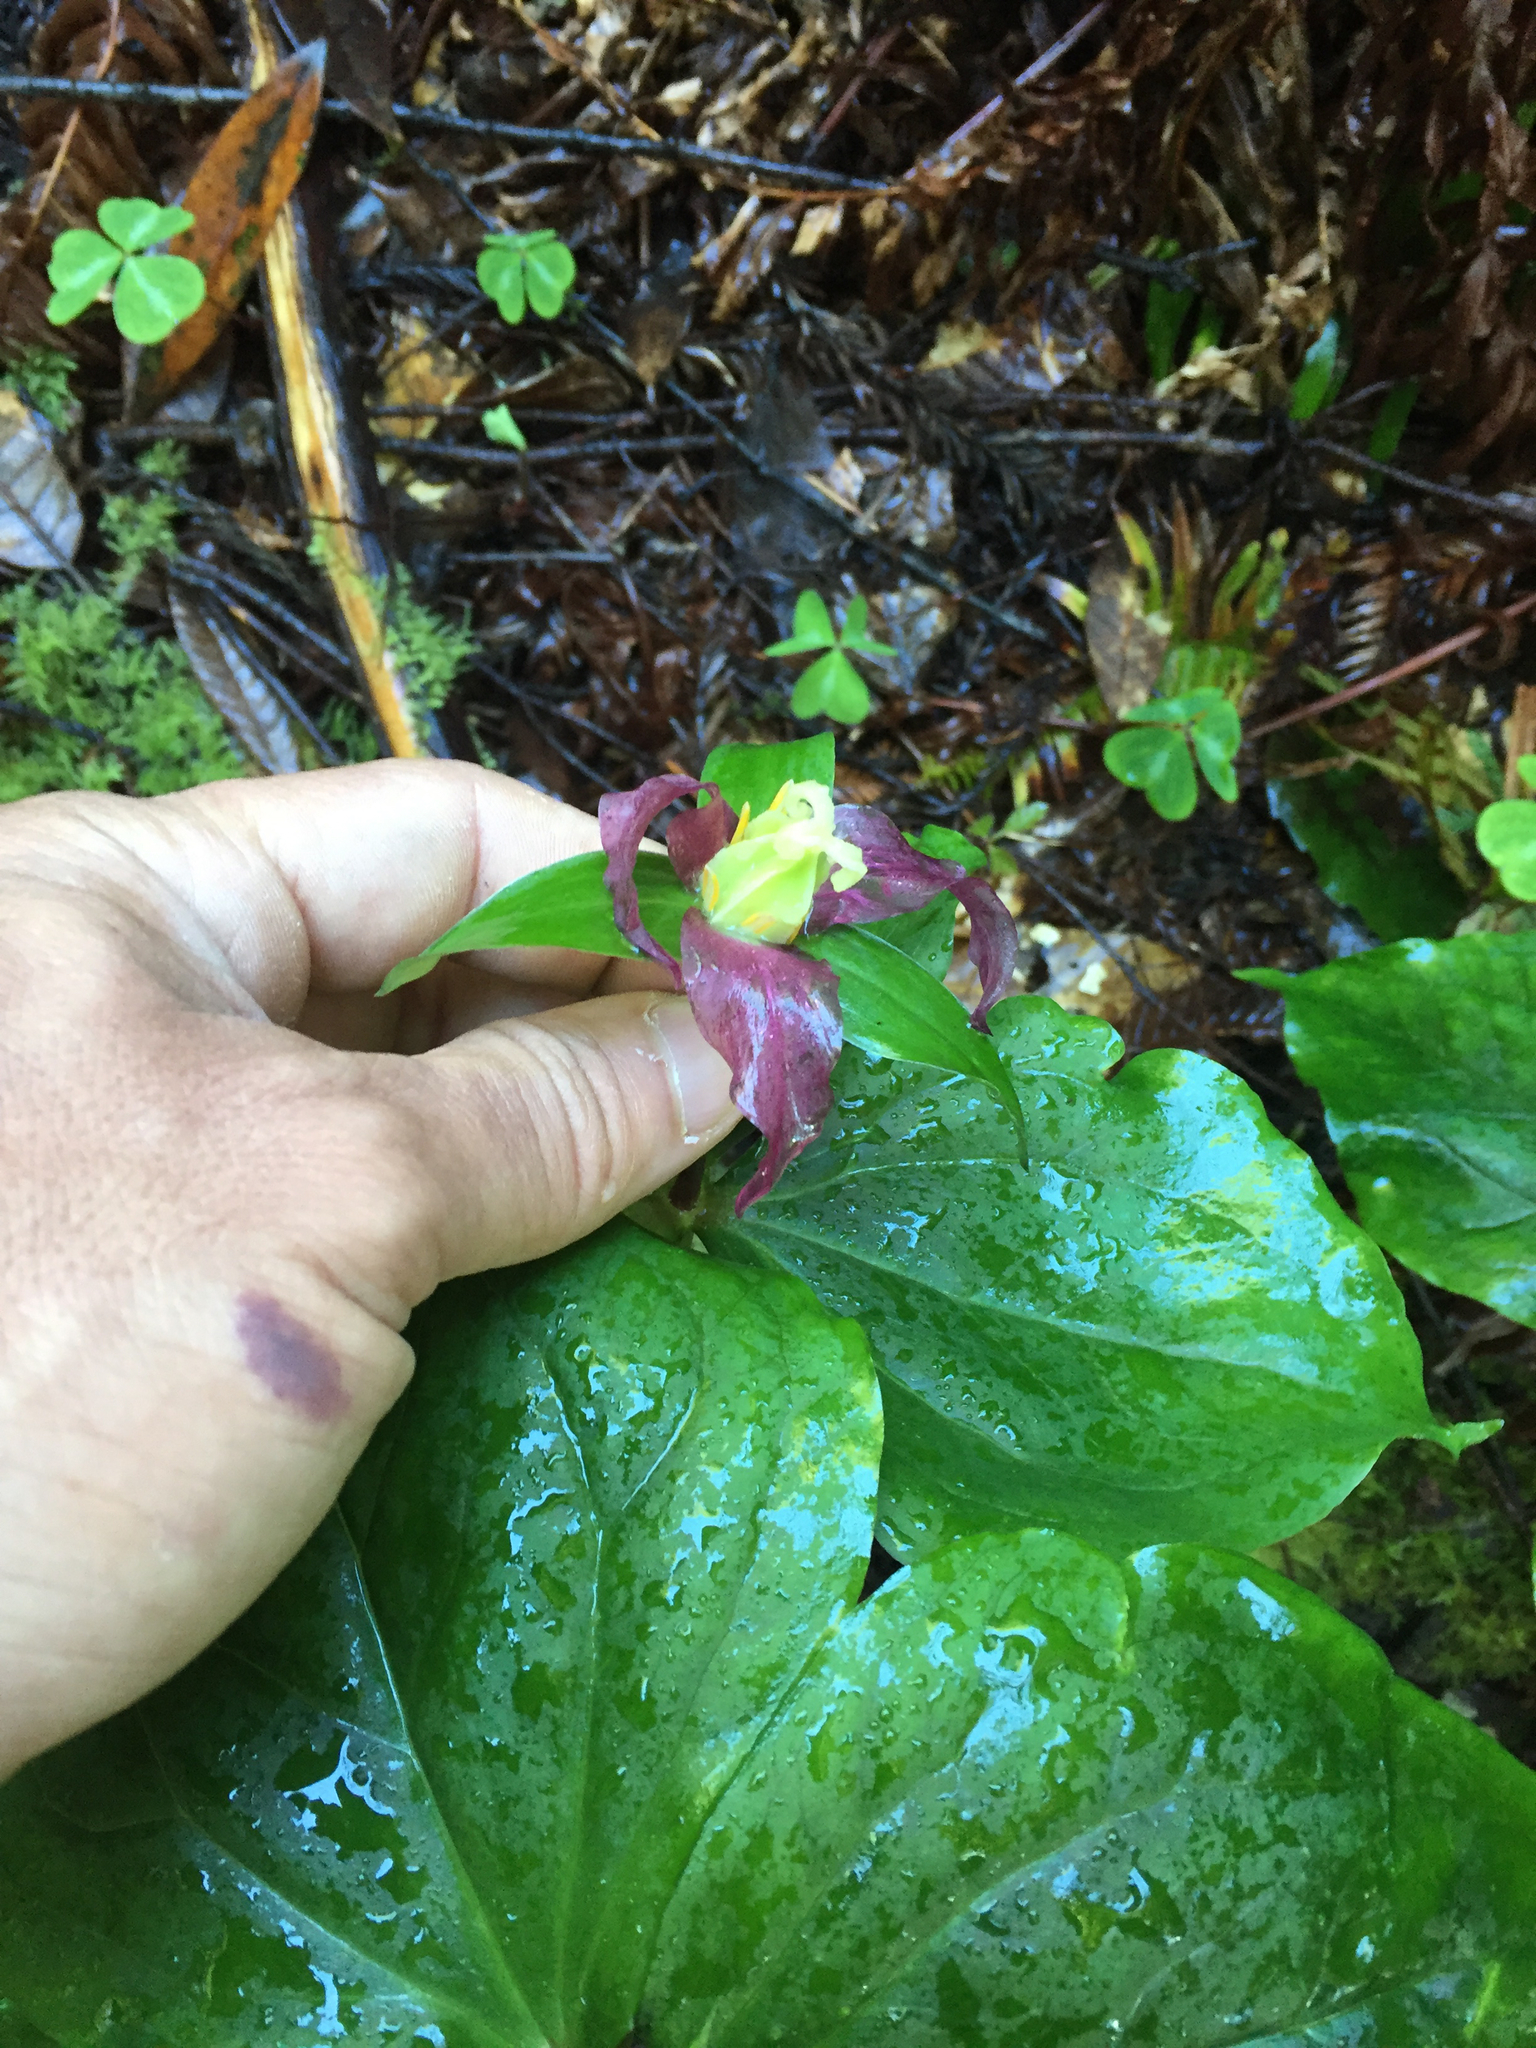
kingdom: Plantae
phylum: Tracheophyta
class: Liliopsida
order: Liliales
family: Melanthiaceae
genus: Trillium
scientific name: Trillium ovatum
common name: Pacific trillium
